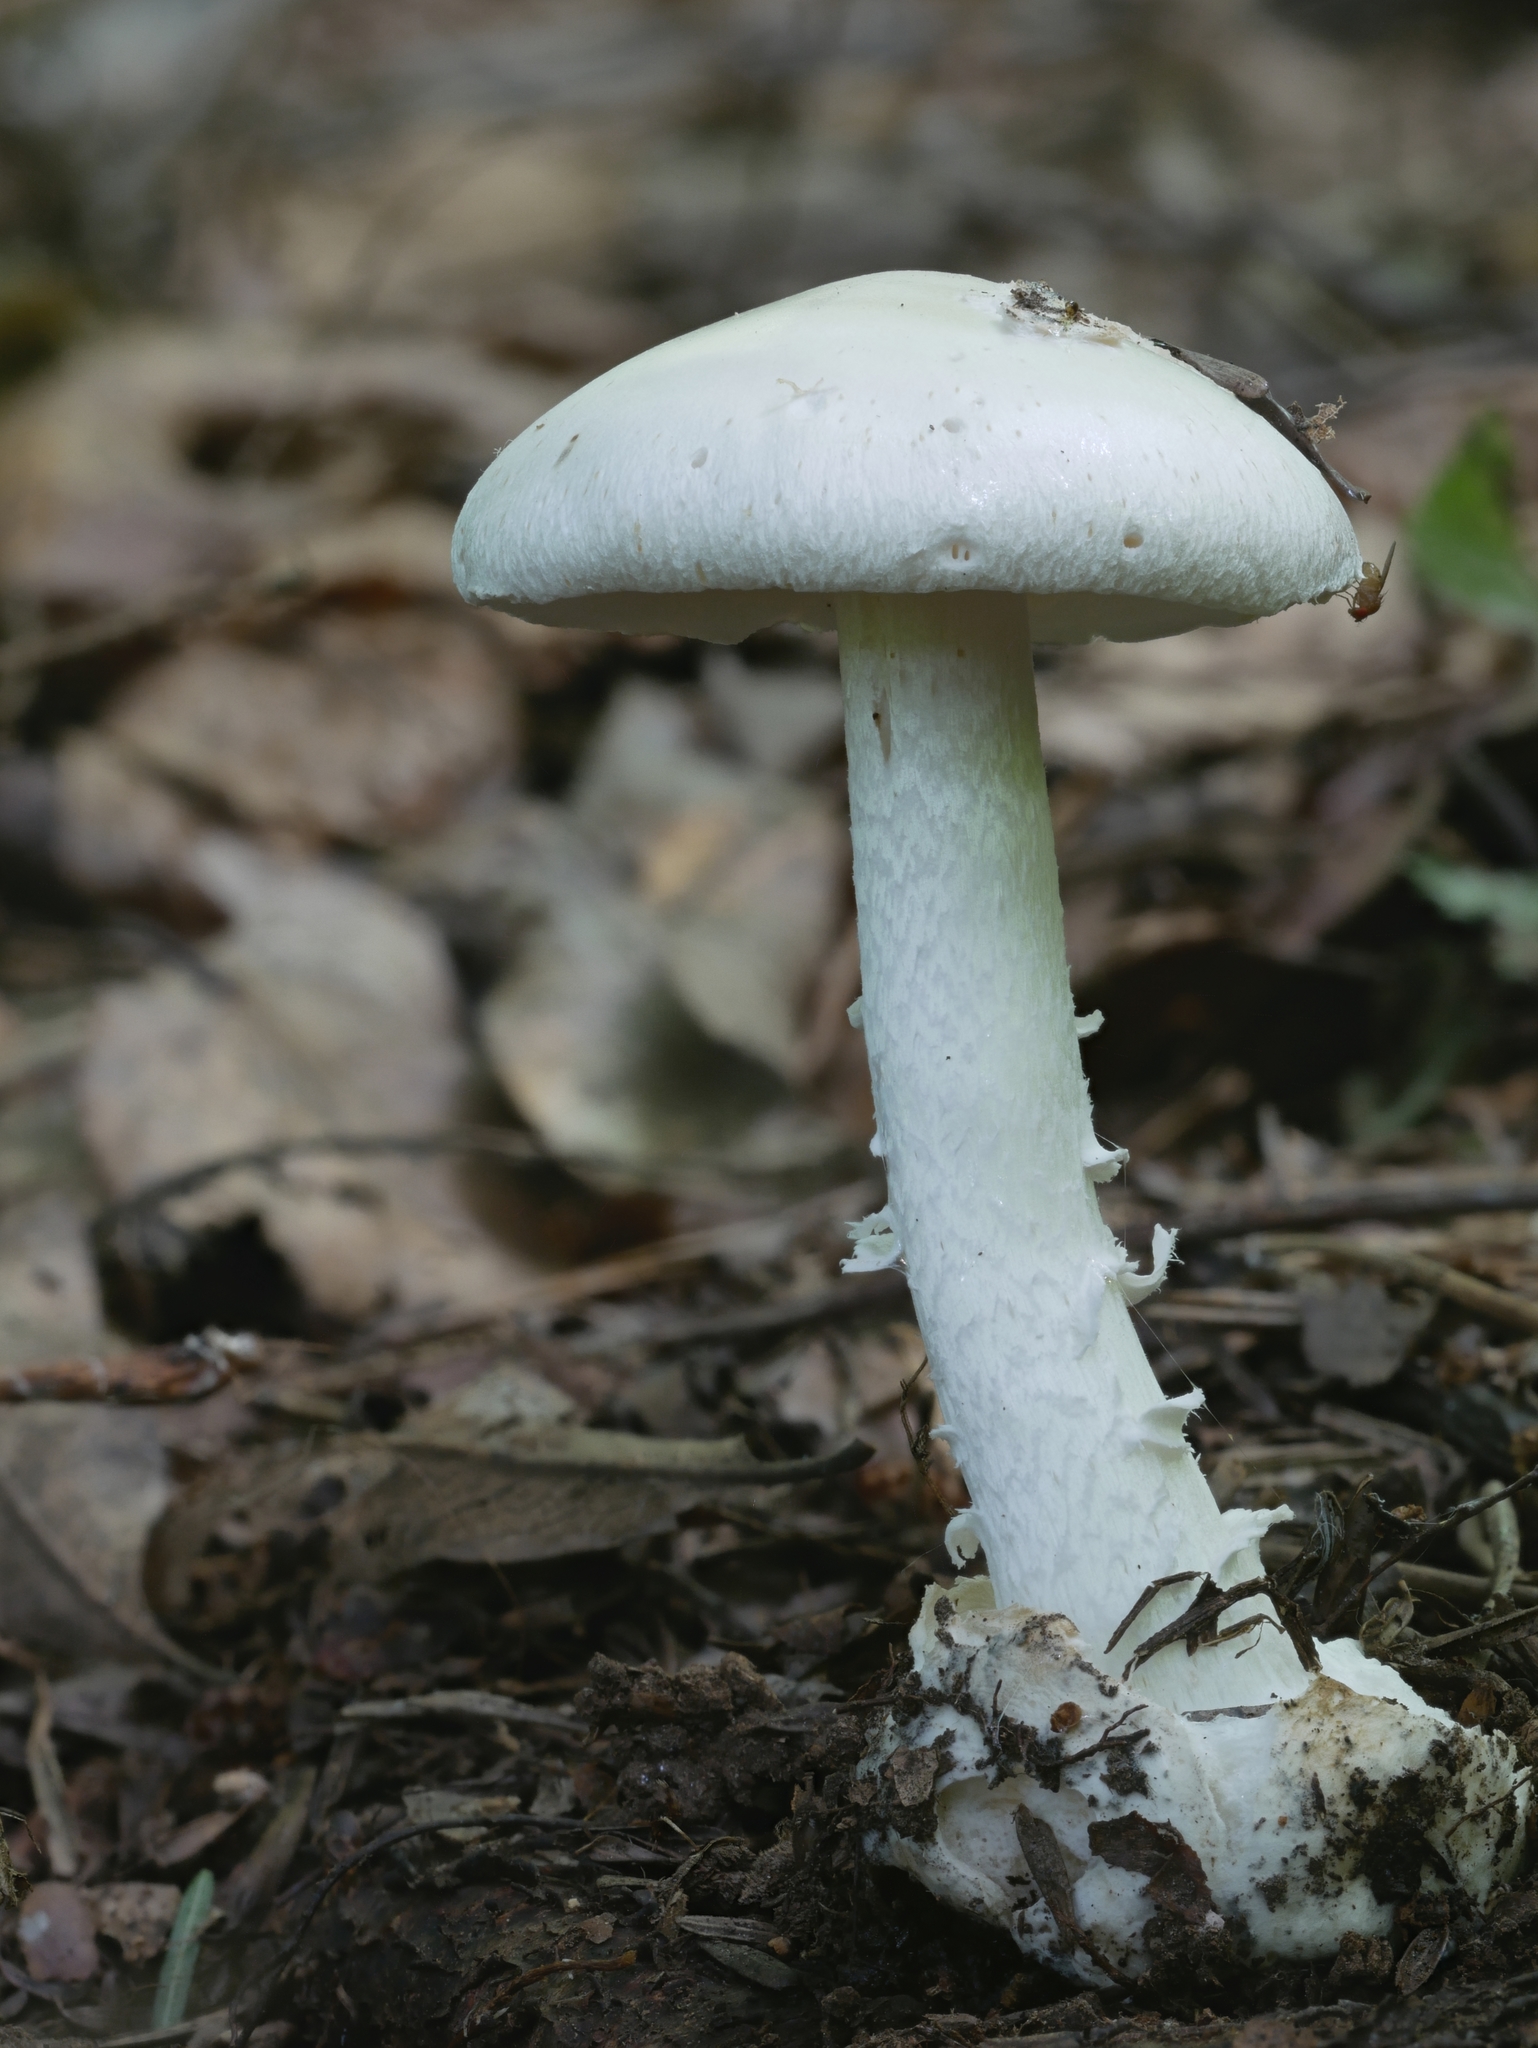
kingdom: Fungi
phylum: Basidiomycota
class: Agaricomycetes
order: Agaricales
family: Amanitaceae
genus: Amanita
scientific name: Amanita bisporigera
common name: Eastern north american destroying angel
